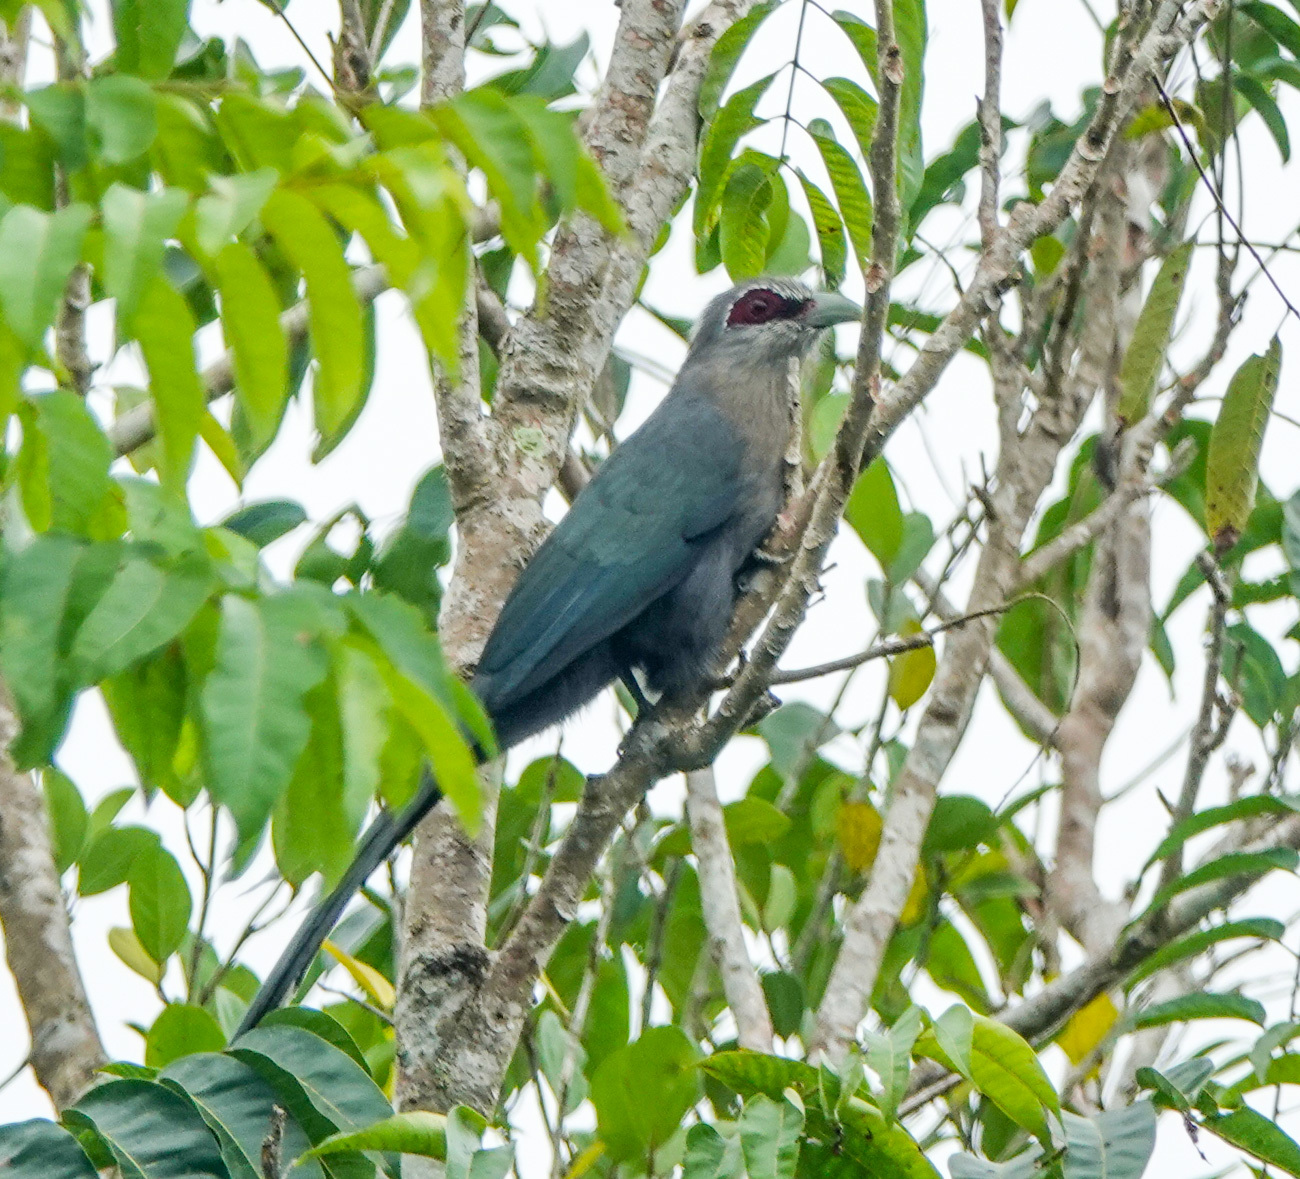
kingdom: Animalia
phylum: Chordata
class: Aves
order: Cuculiformes
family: Cuculidae
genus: Rhopodytes
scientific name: Rhopodytes tristis
